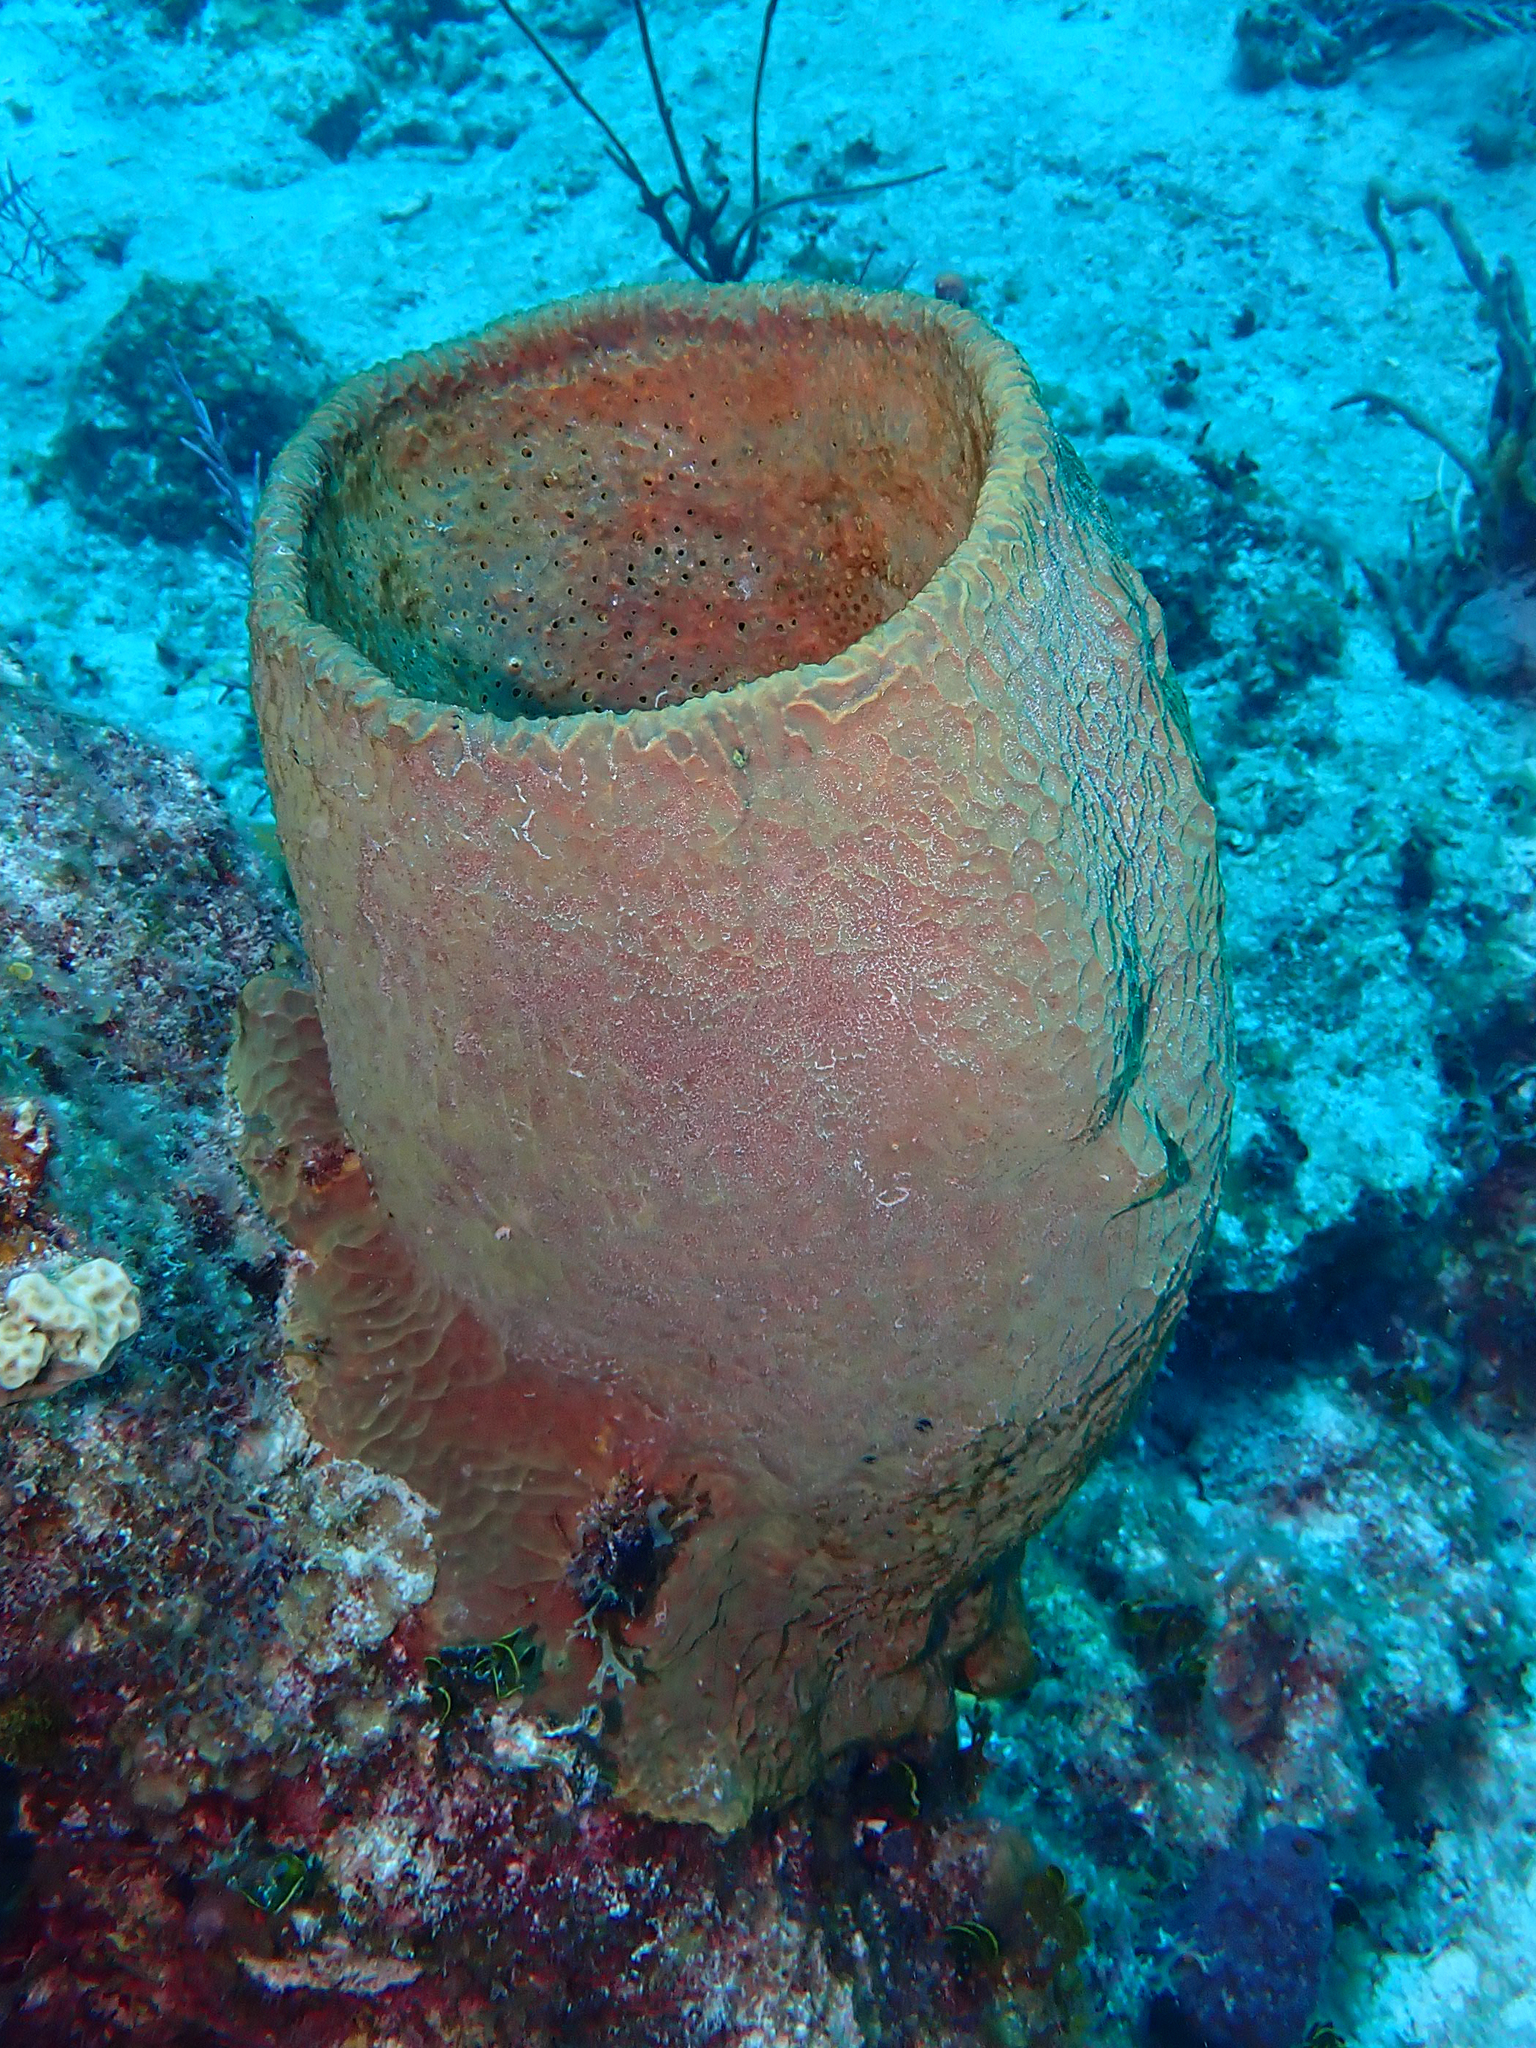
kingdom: Animalia
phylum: Porifera
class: Demospongiae
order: Verongiida
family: Aplysinidae
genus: Verongula
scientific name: Verongula gigantea
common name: Netted barrel sponge
